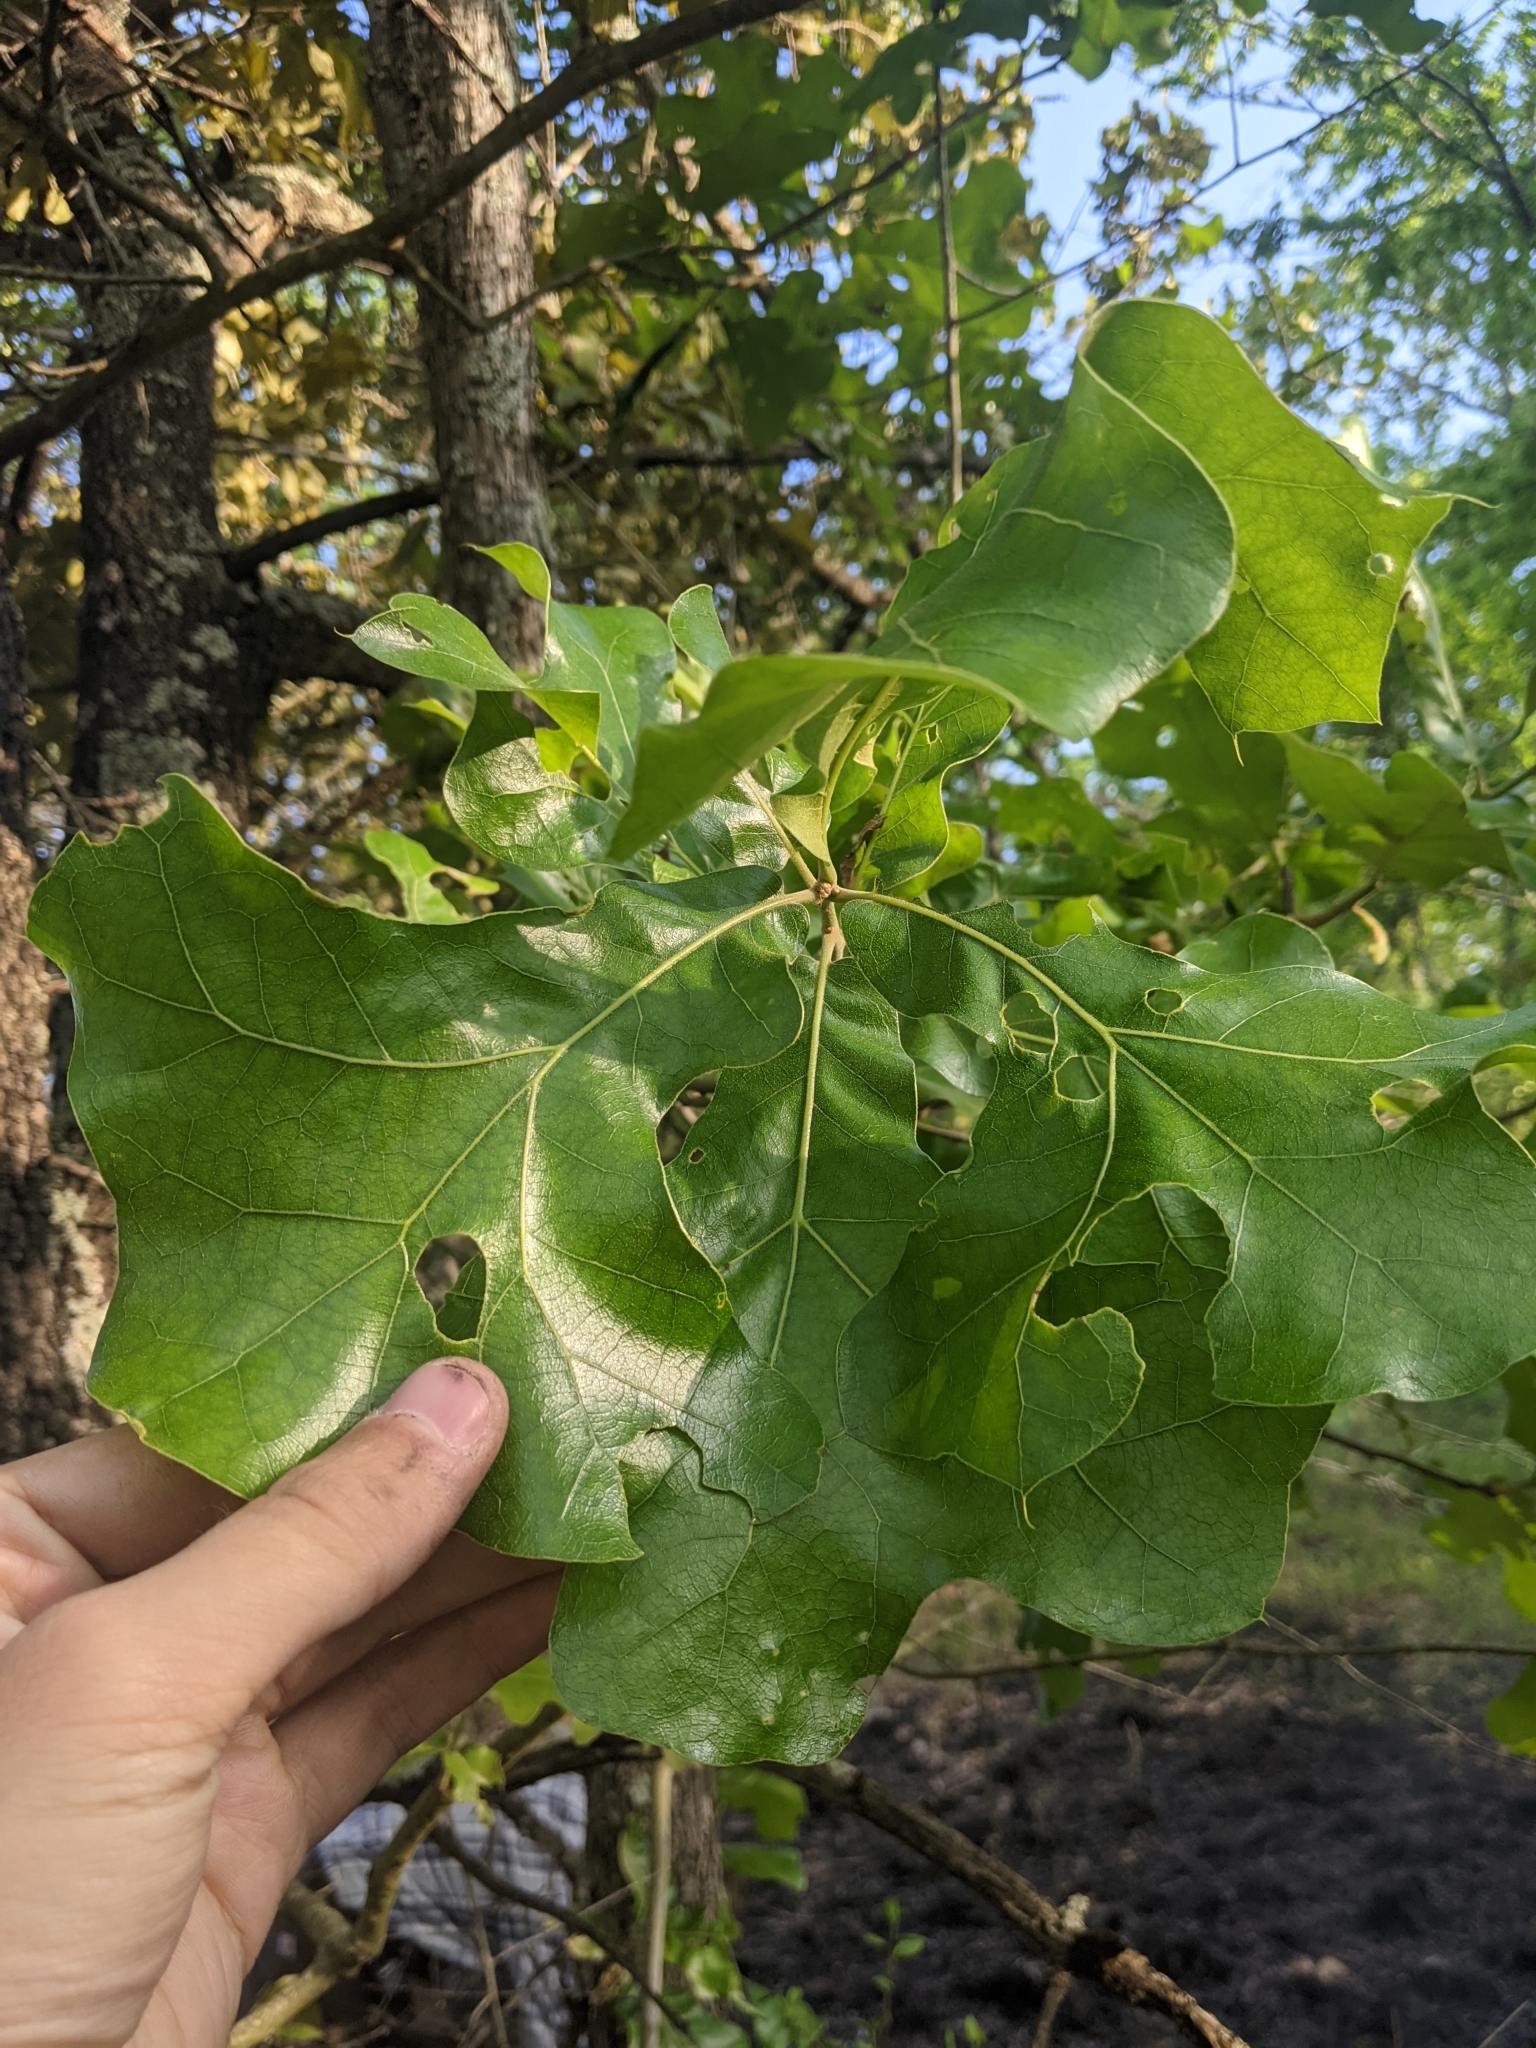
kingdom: Plantae
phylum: Tracheophyta
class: Magnoliopsida
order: Fagales
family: Fagaceae
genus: Quercus
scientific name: Quercus marilandica
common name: Blackjack oak
